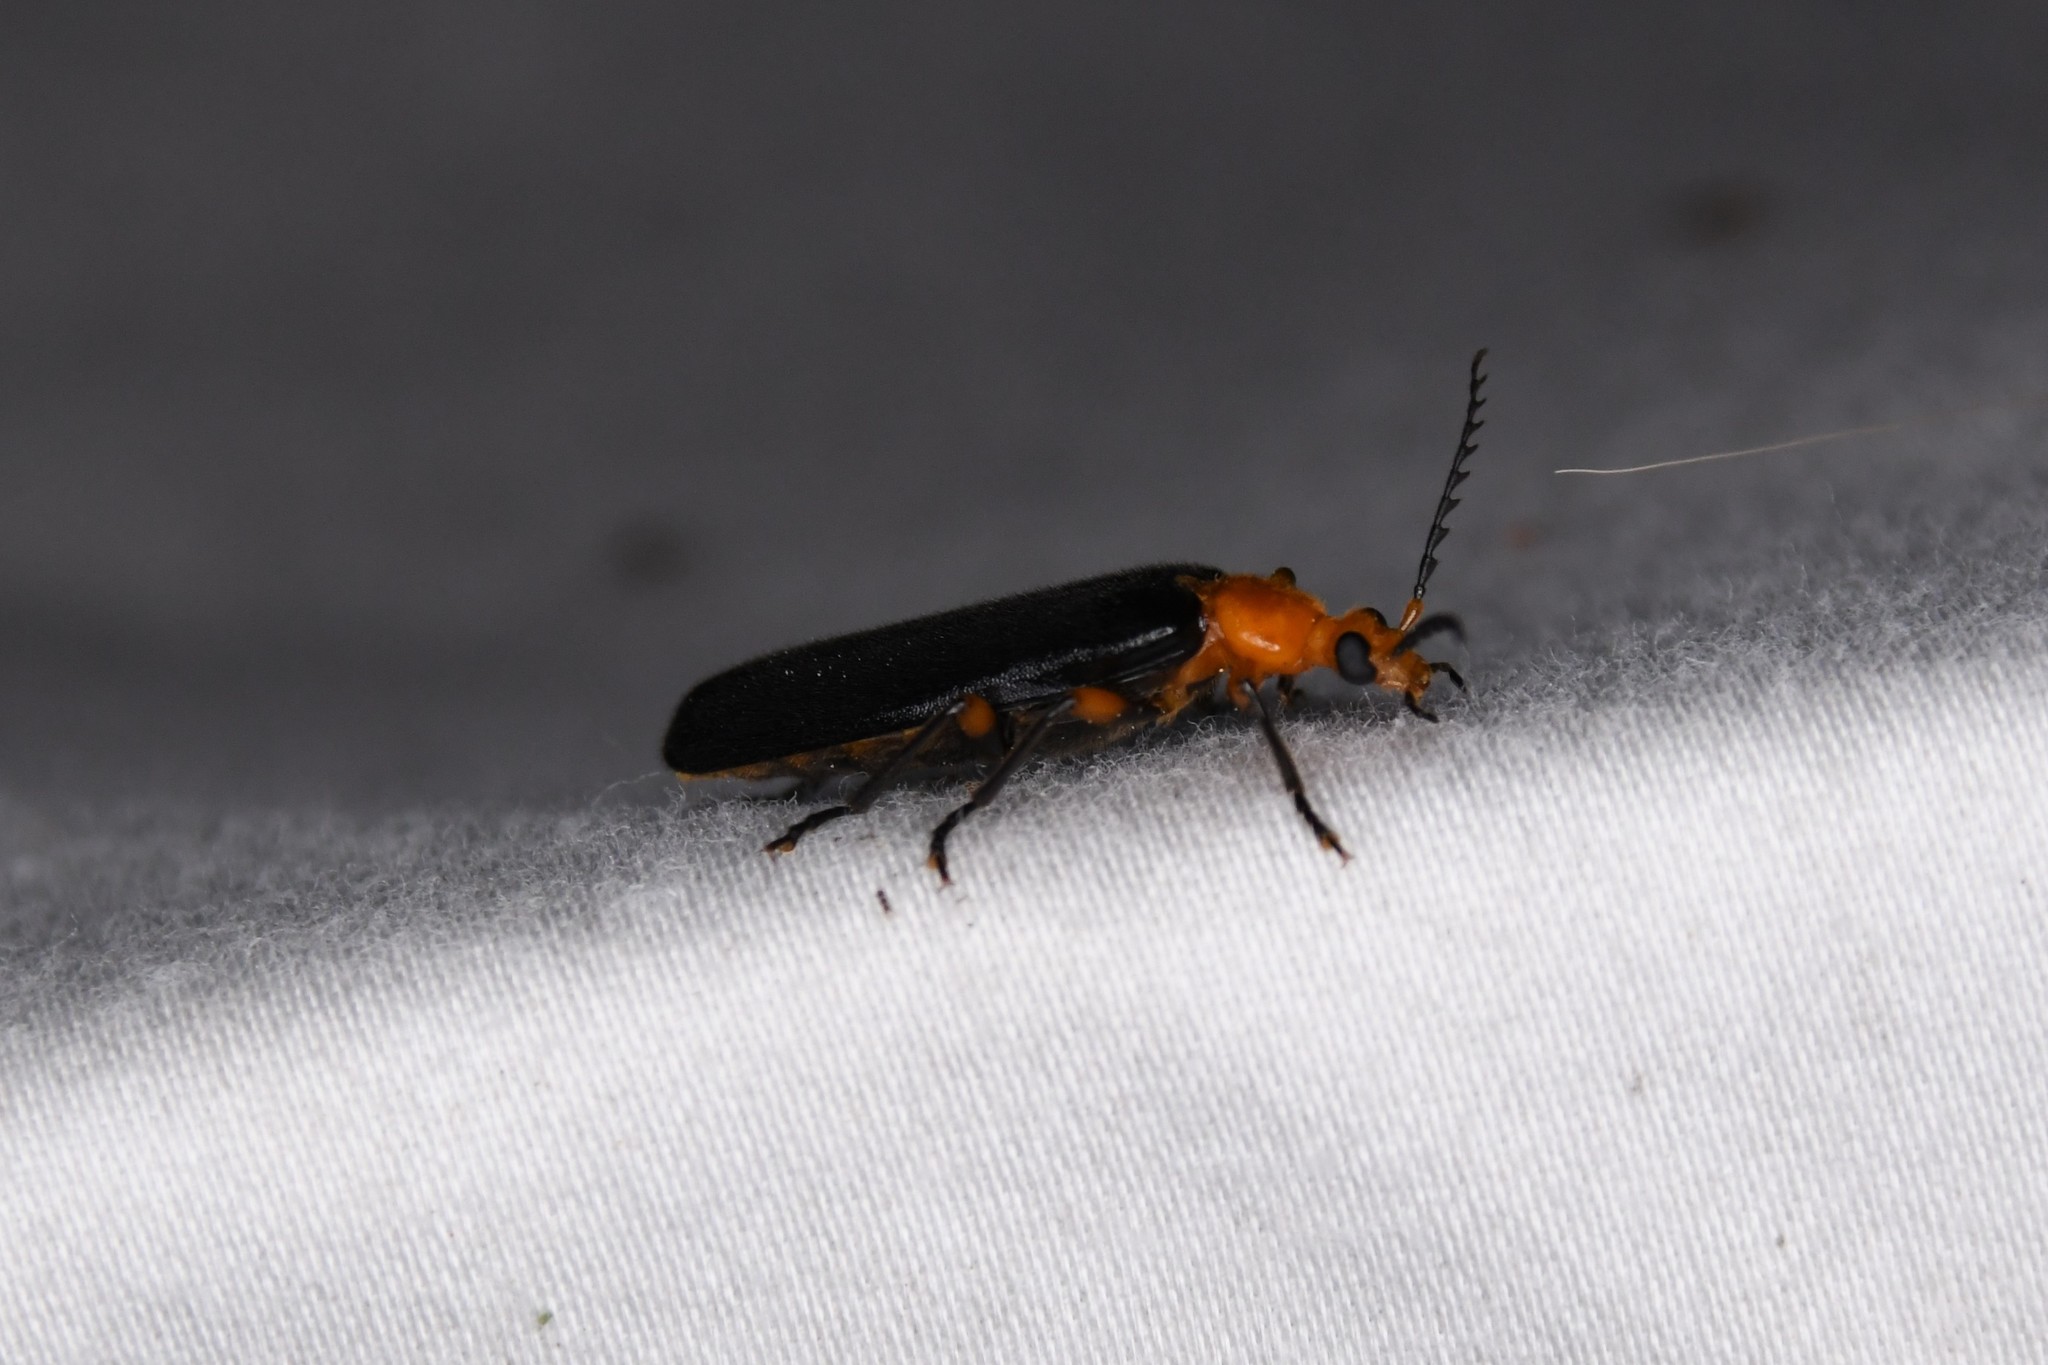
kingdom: Animalia
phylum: Arthropoda
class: Insecta
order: Coleoptera
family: Pyrochroidae
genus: Neopyrochroa
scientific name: Neopyrochroa femoralis
